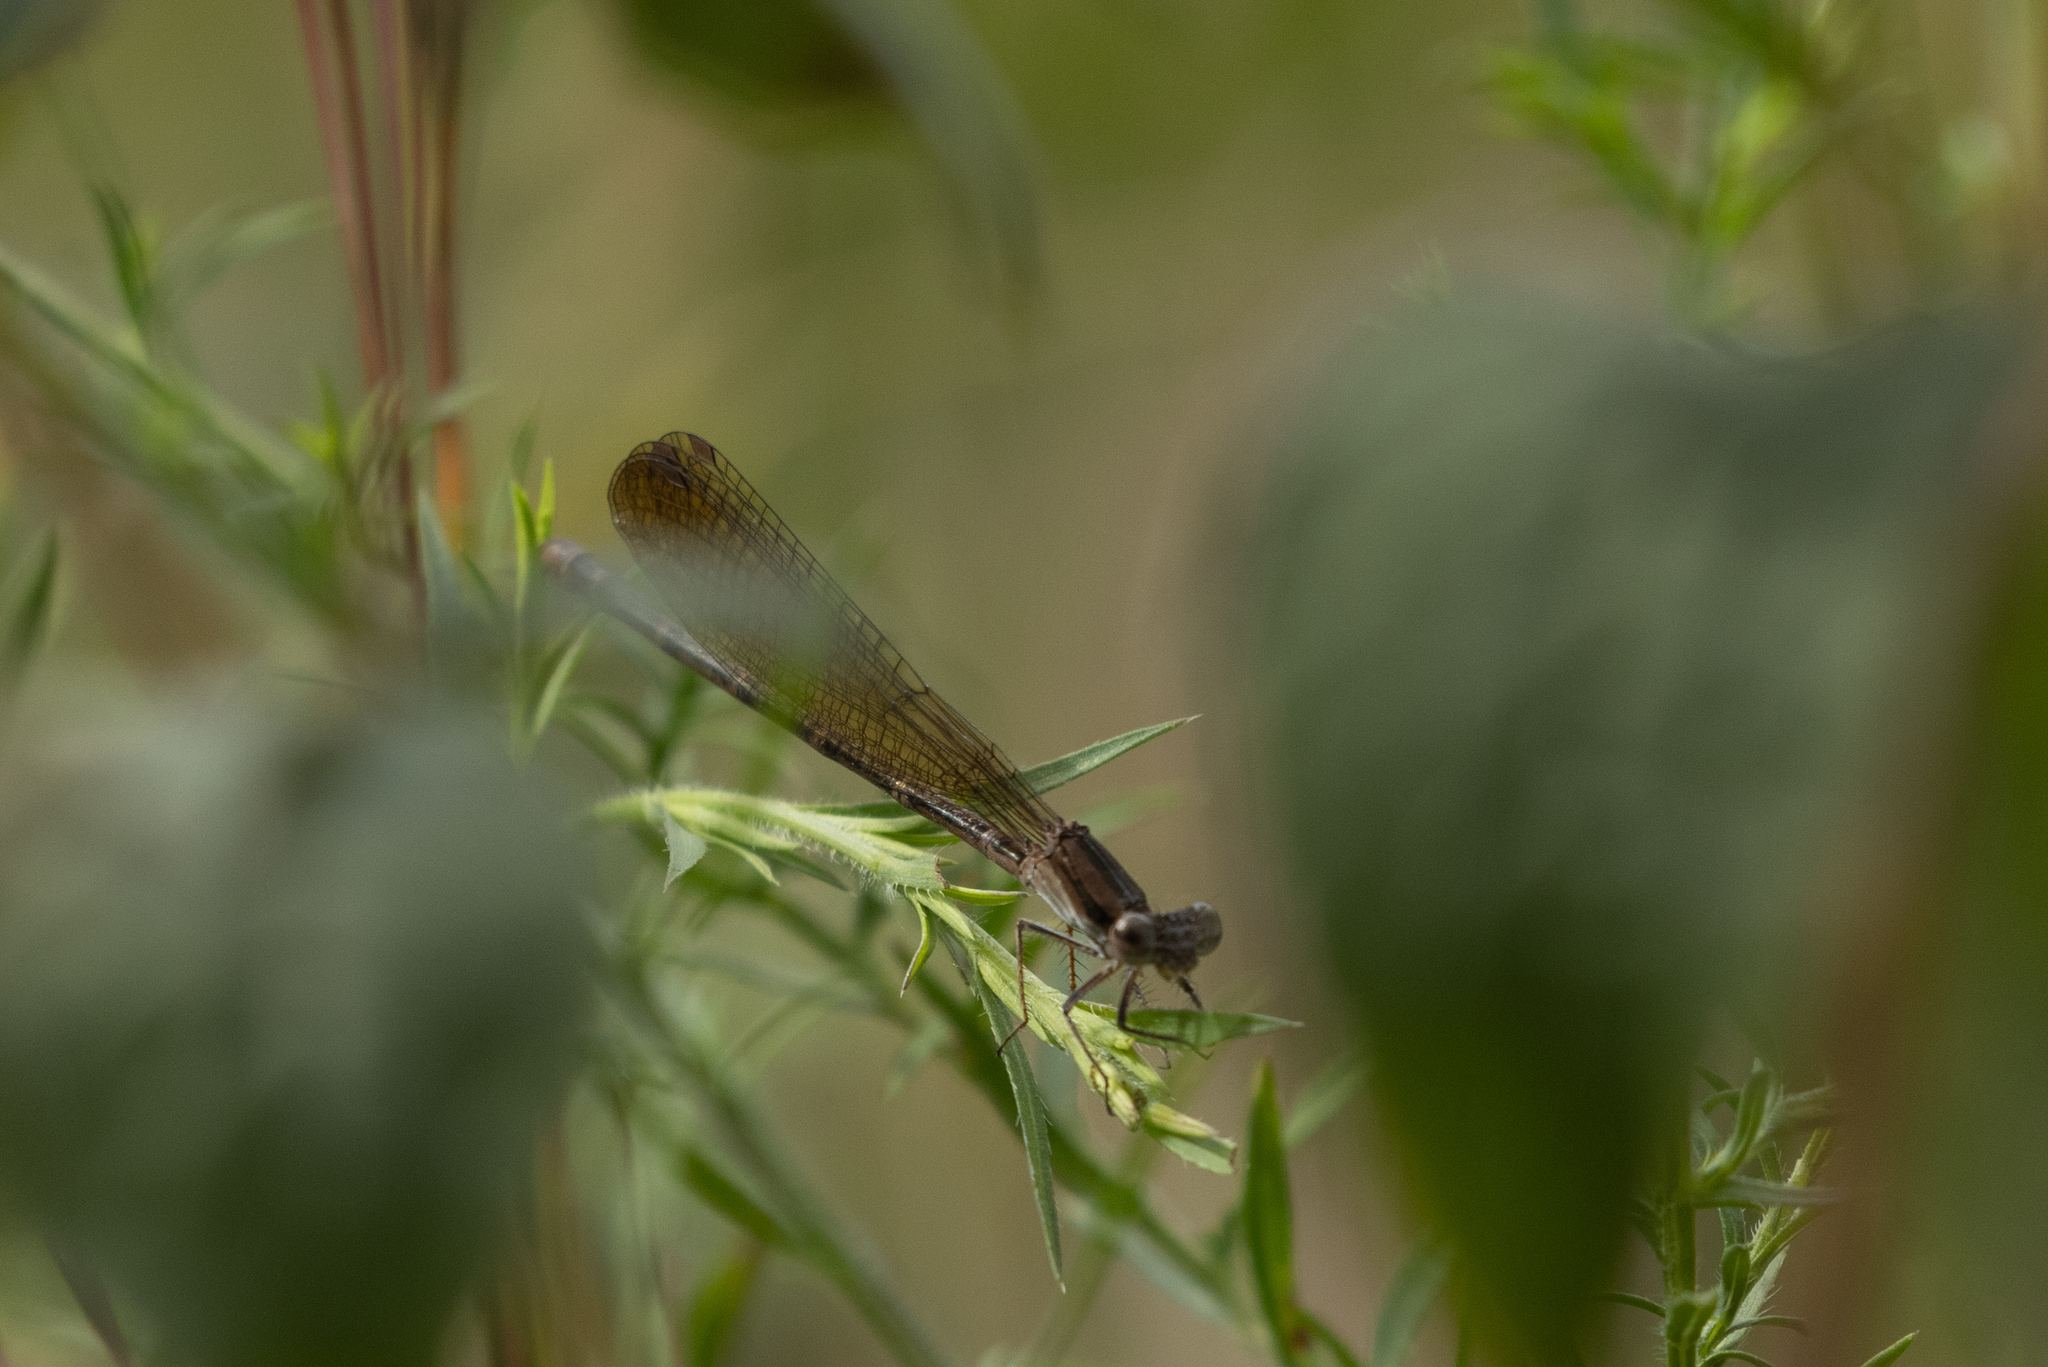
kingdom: Animalia
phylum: Arthropoda
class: Insecta
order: Odonata
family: Coenagrionidae
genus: Argia
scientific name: Argia fumipennis
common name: Variable dancer
